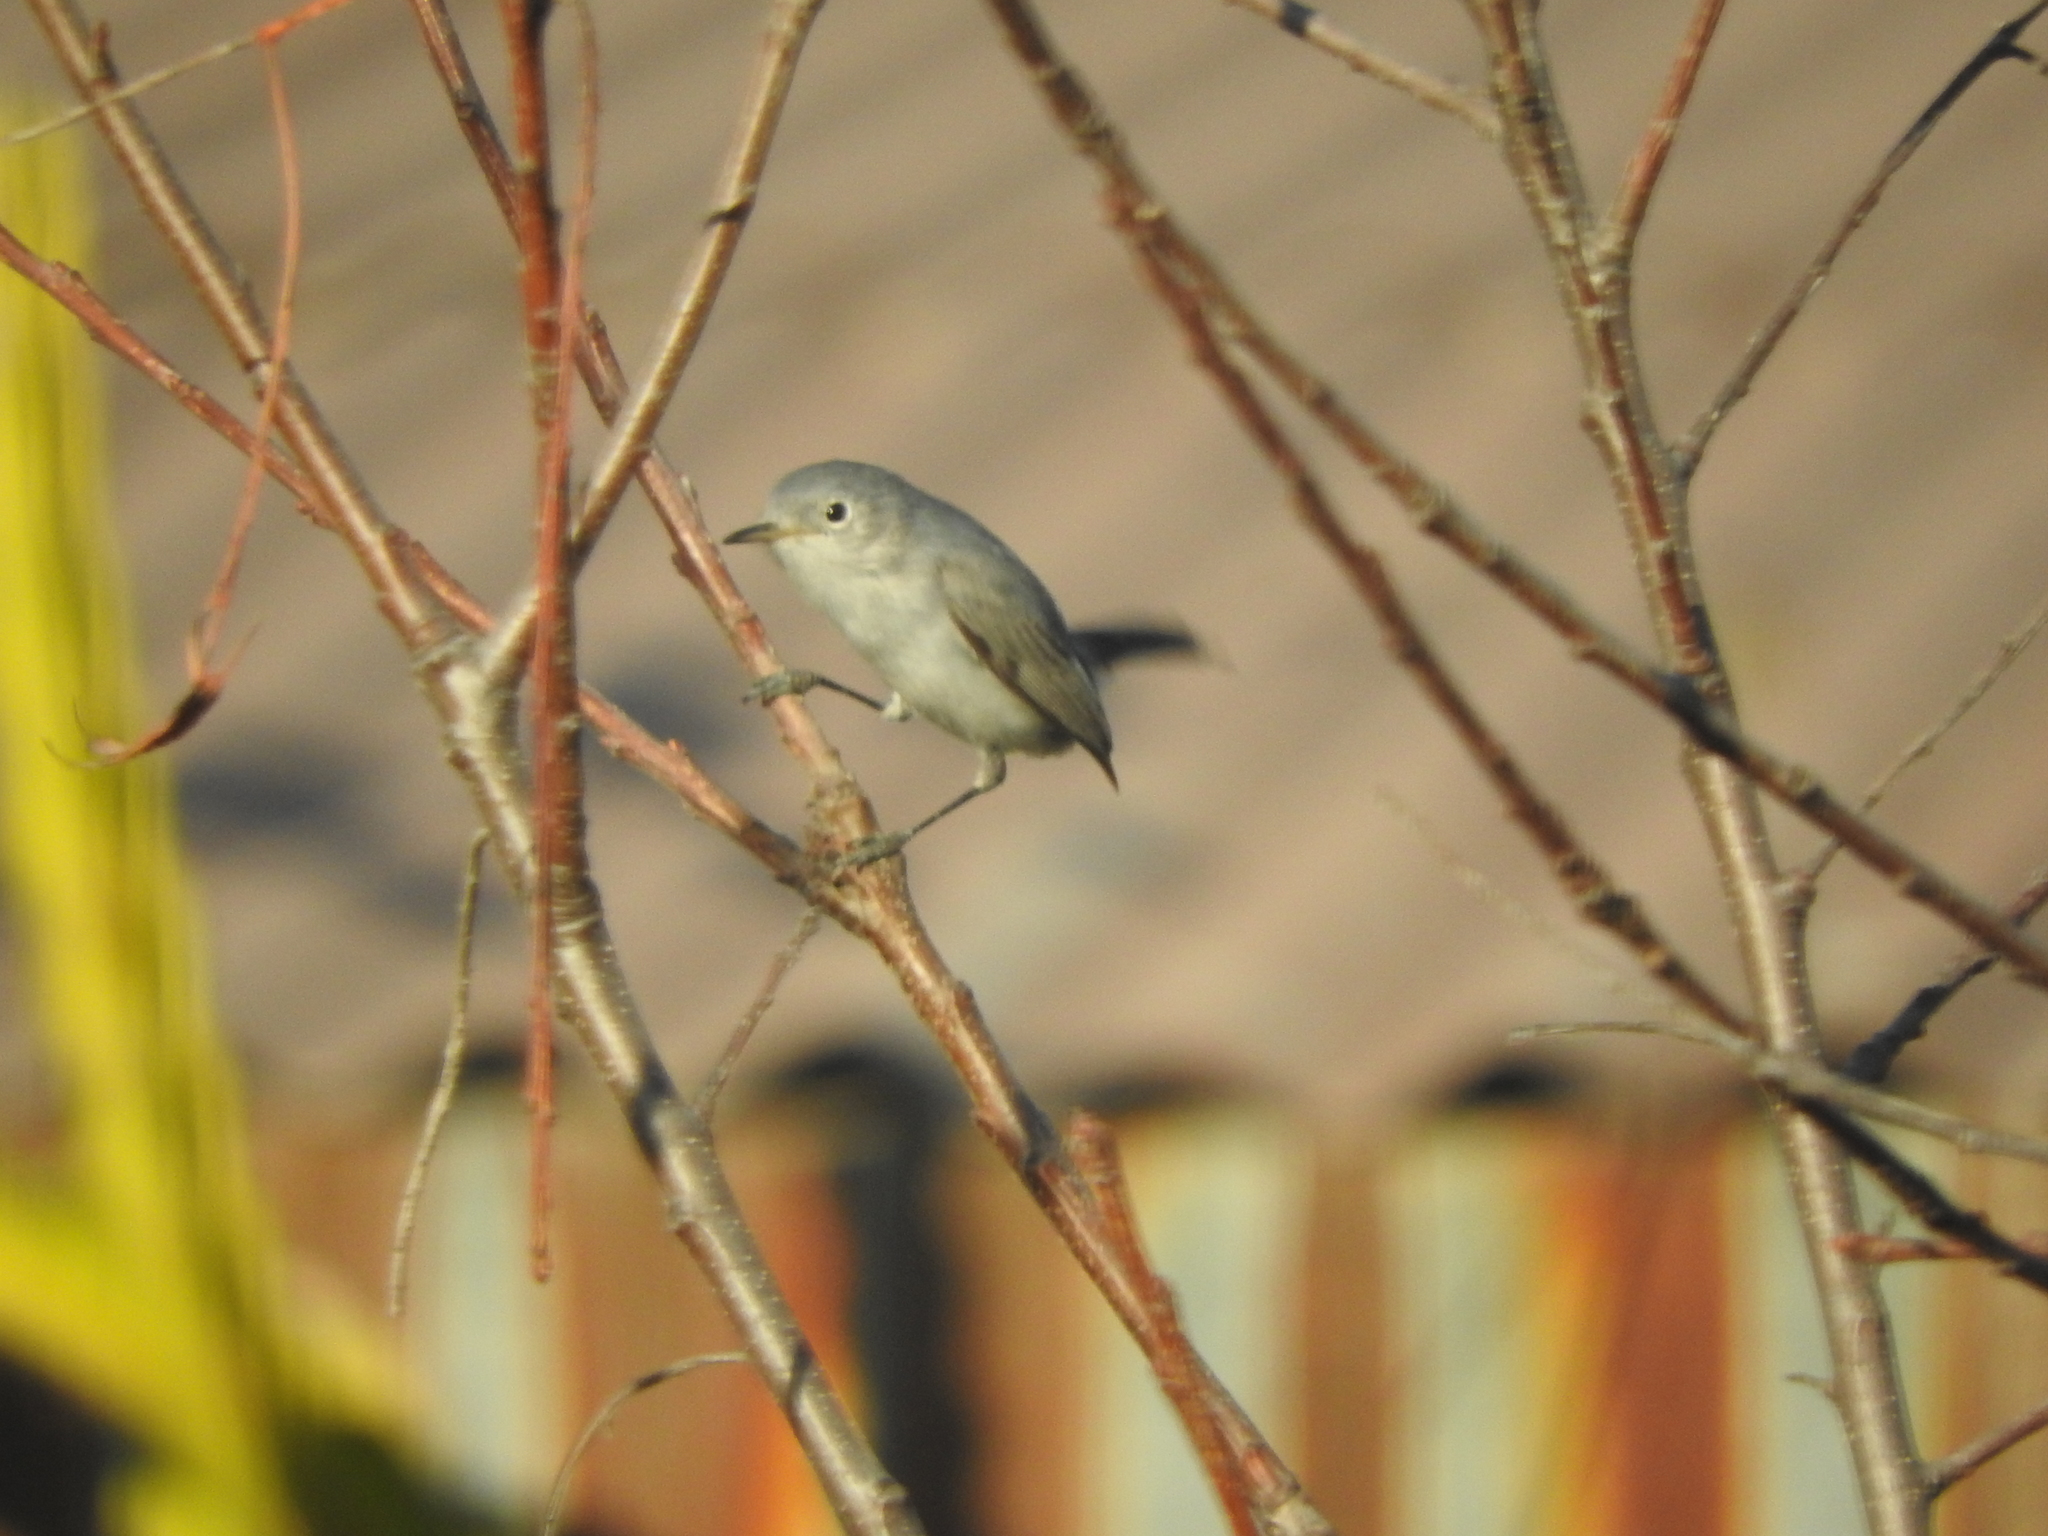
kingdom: Animalia
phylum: Chordata
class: Aves
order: Passeriformes
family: Polioptilidae
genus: Polioptila
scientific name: Polioptila caerulea
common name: Blue-gray gnatcatcher
